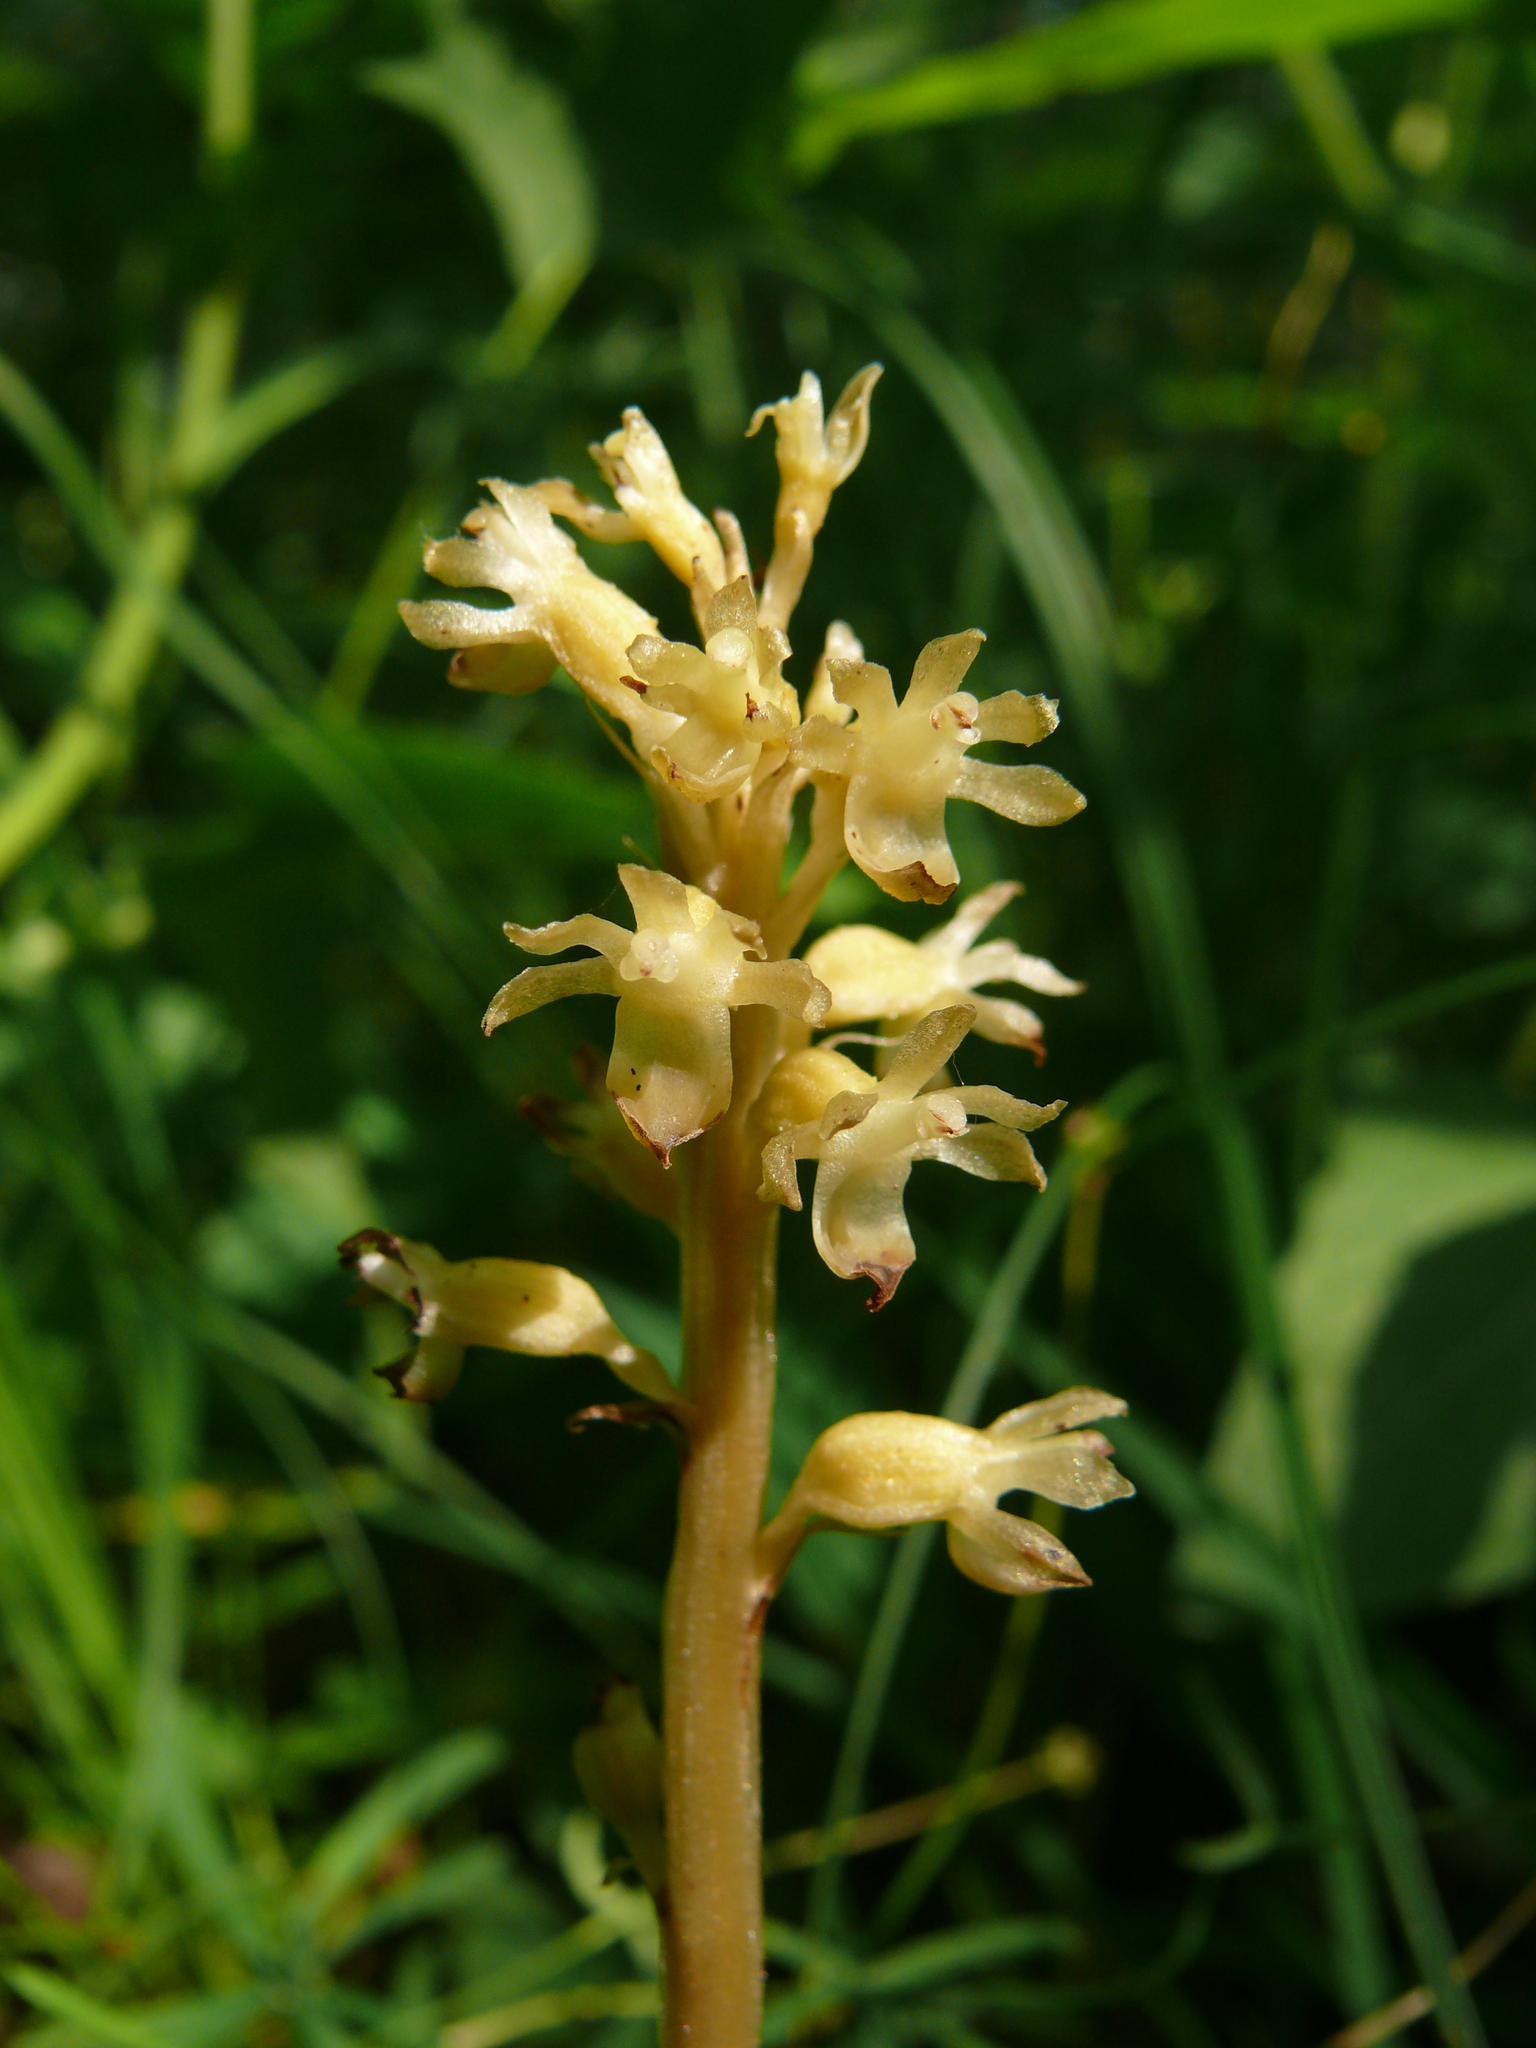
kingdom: Plantae
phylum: Tracheophyta
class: Liliopsida
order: Asparagales
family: Orchidaceae
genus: Neottia
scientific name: Neottia nidus-avis
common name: Bird's-nest orchid
